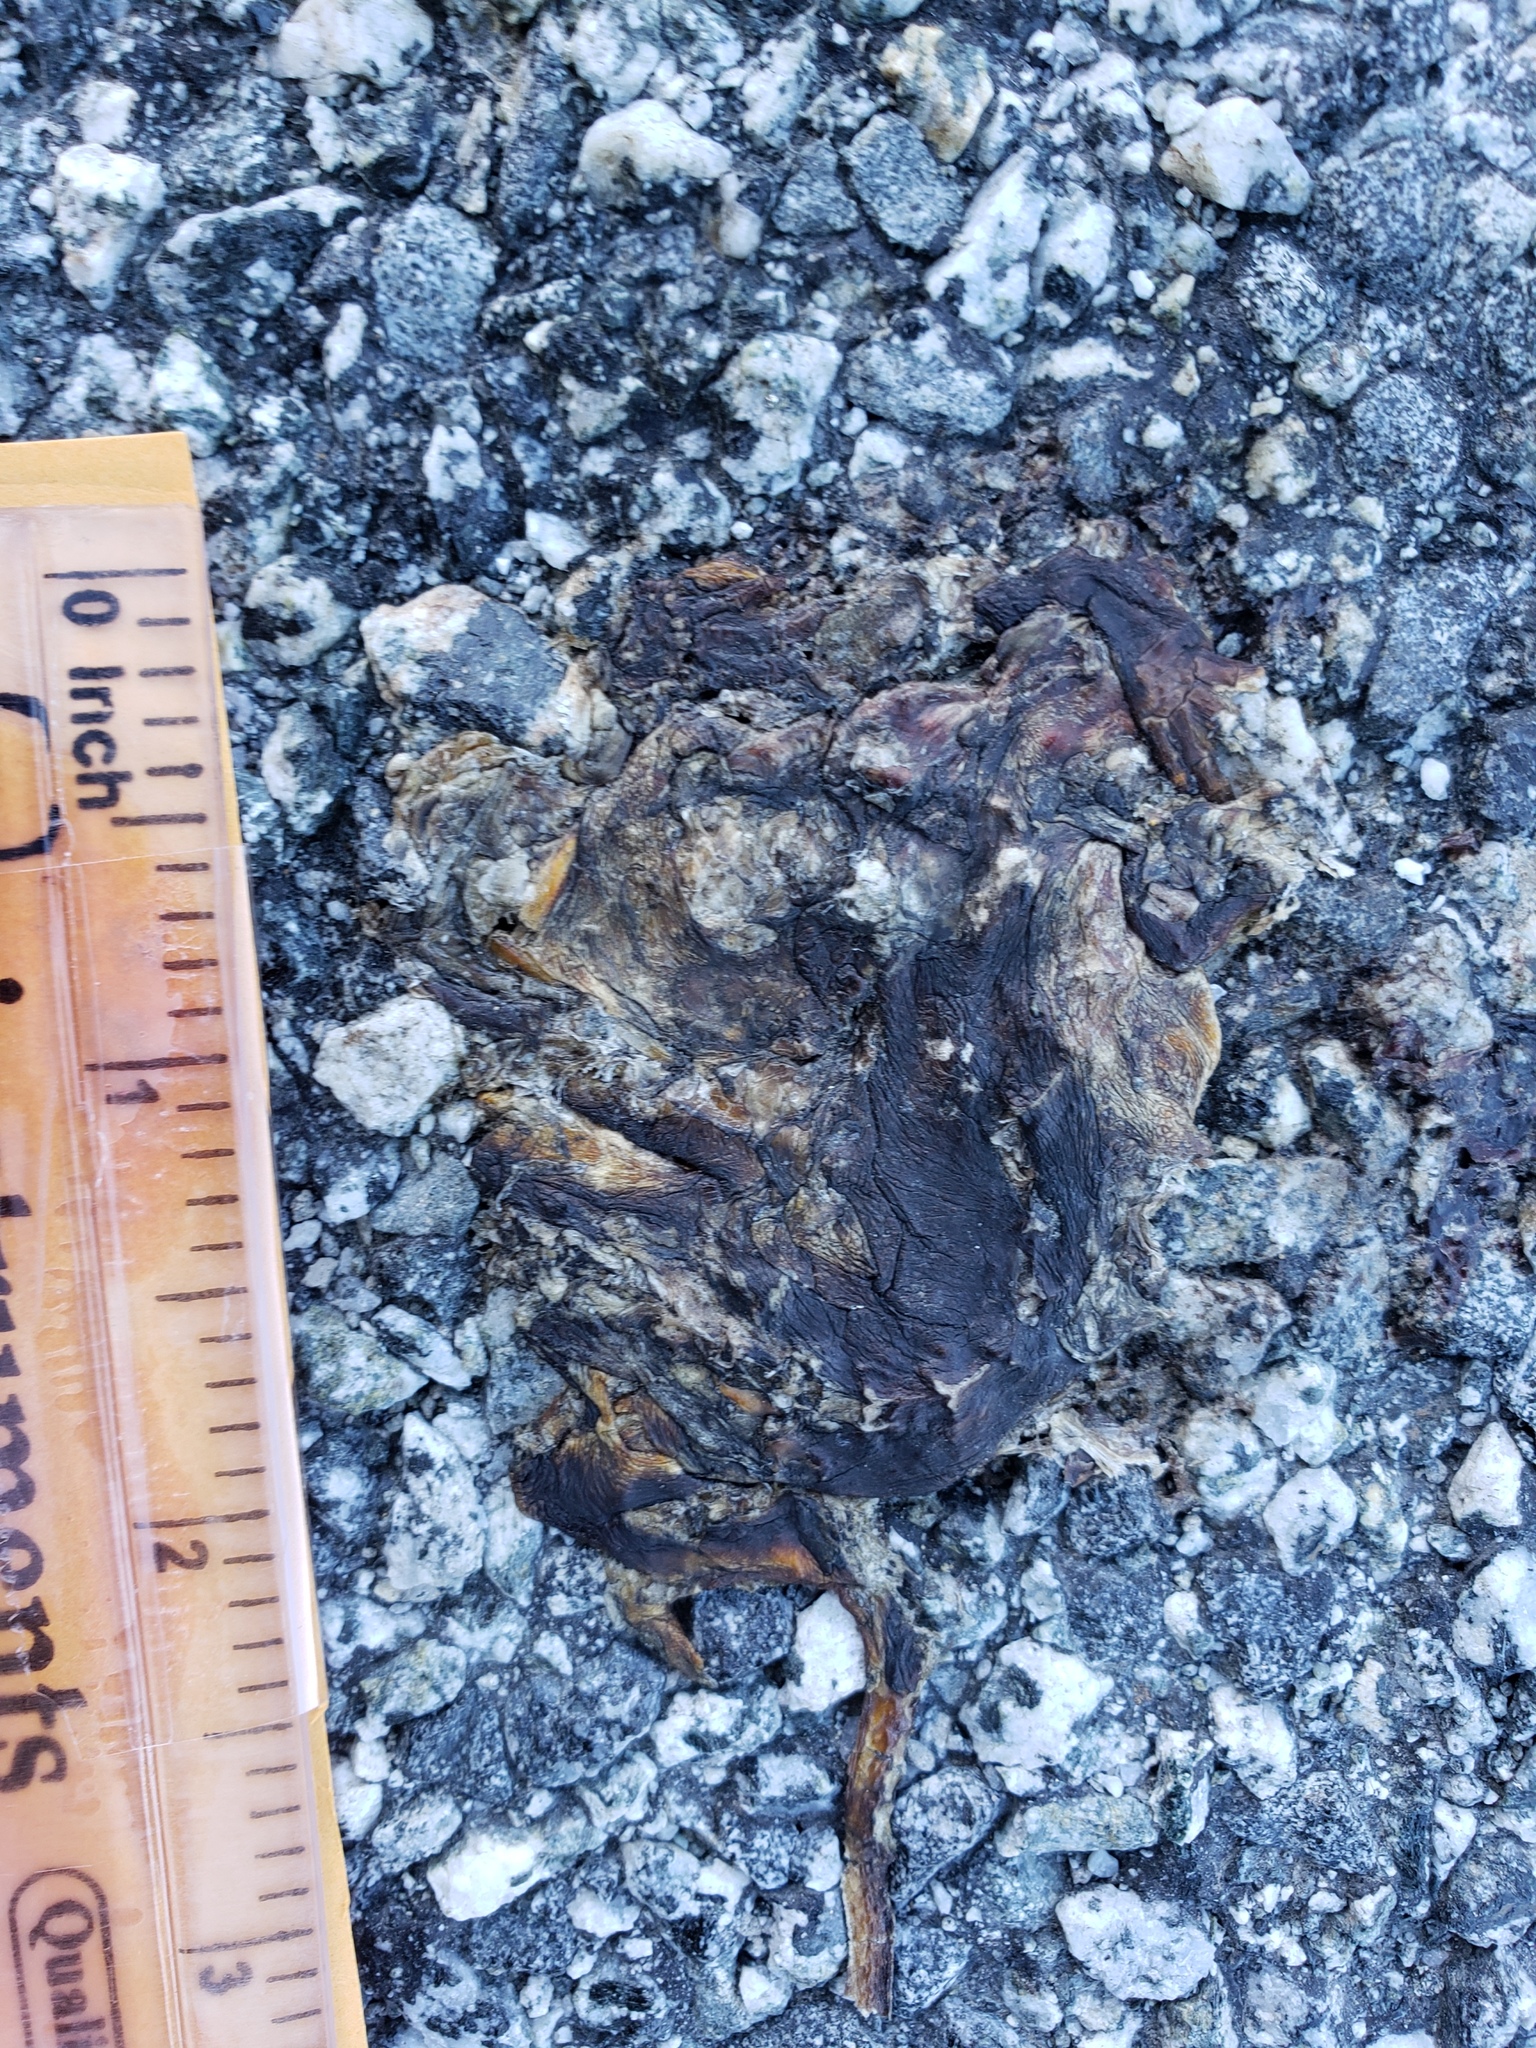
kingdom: Animalia
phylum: Chordata
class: Amphibia
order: Caudata
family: Salamandridae
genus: Taricha
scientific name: Taricha
